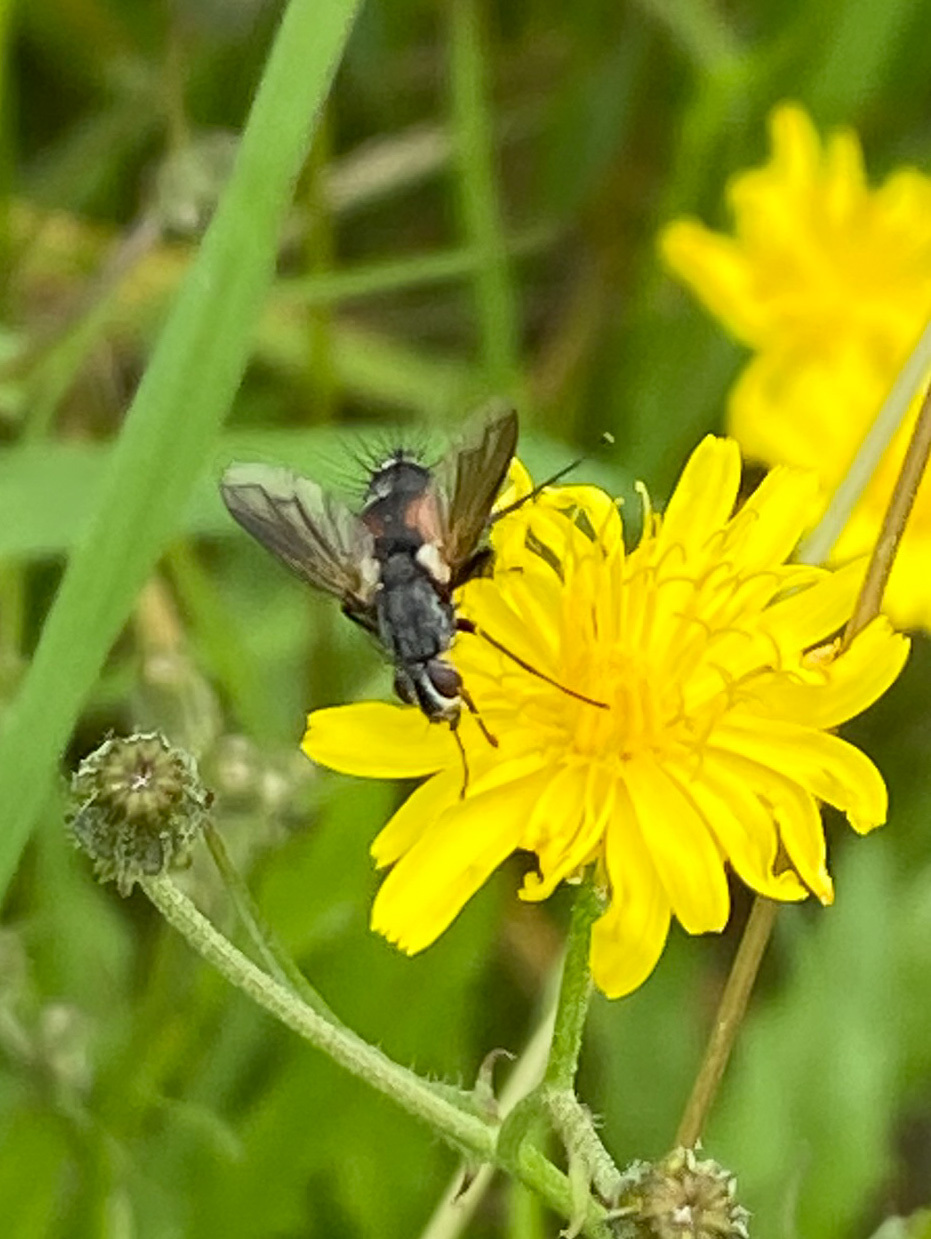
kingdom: Animalia
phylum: Arthropoda
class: Insecta
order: Diptera
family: Tachinidae
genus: Eriothrix
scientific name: Eriothrix rufomaculatus
